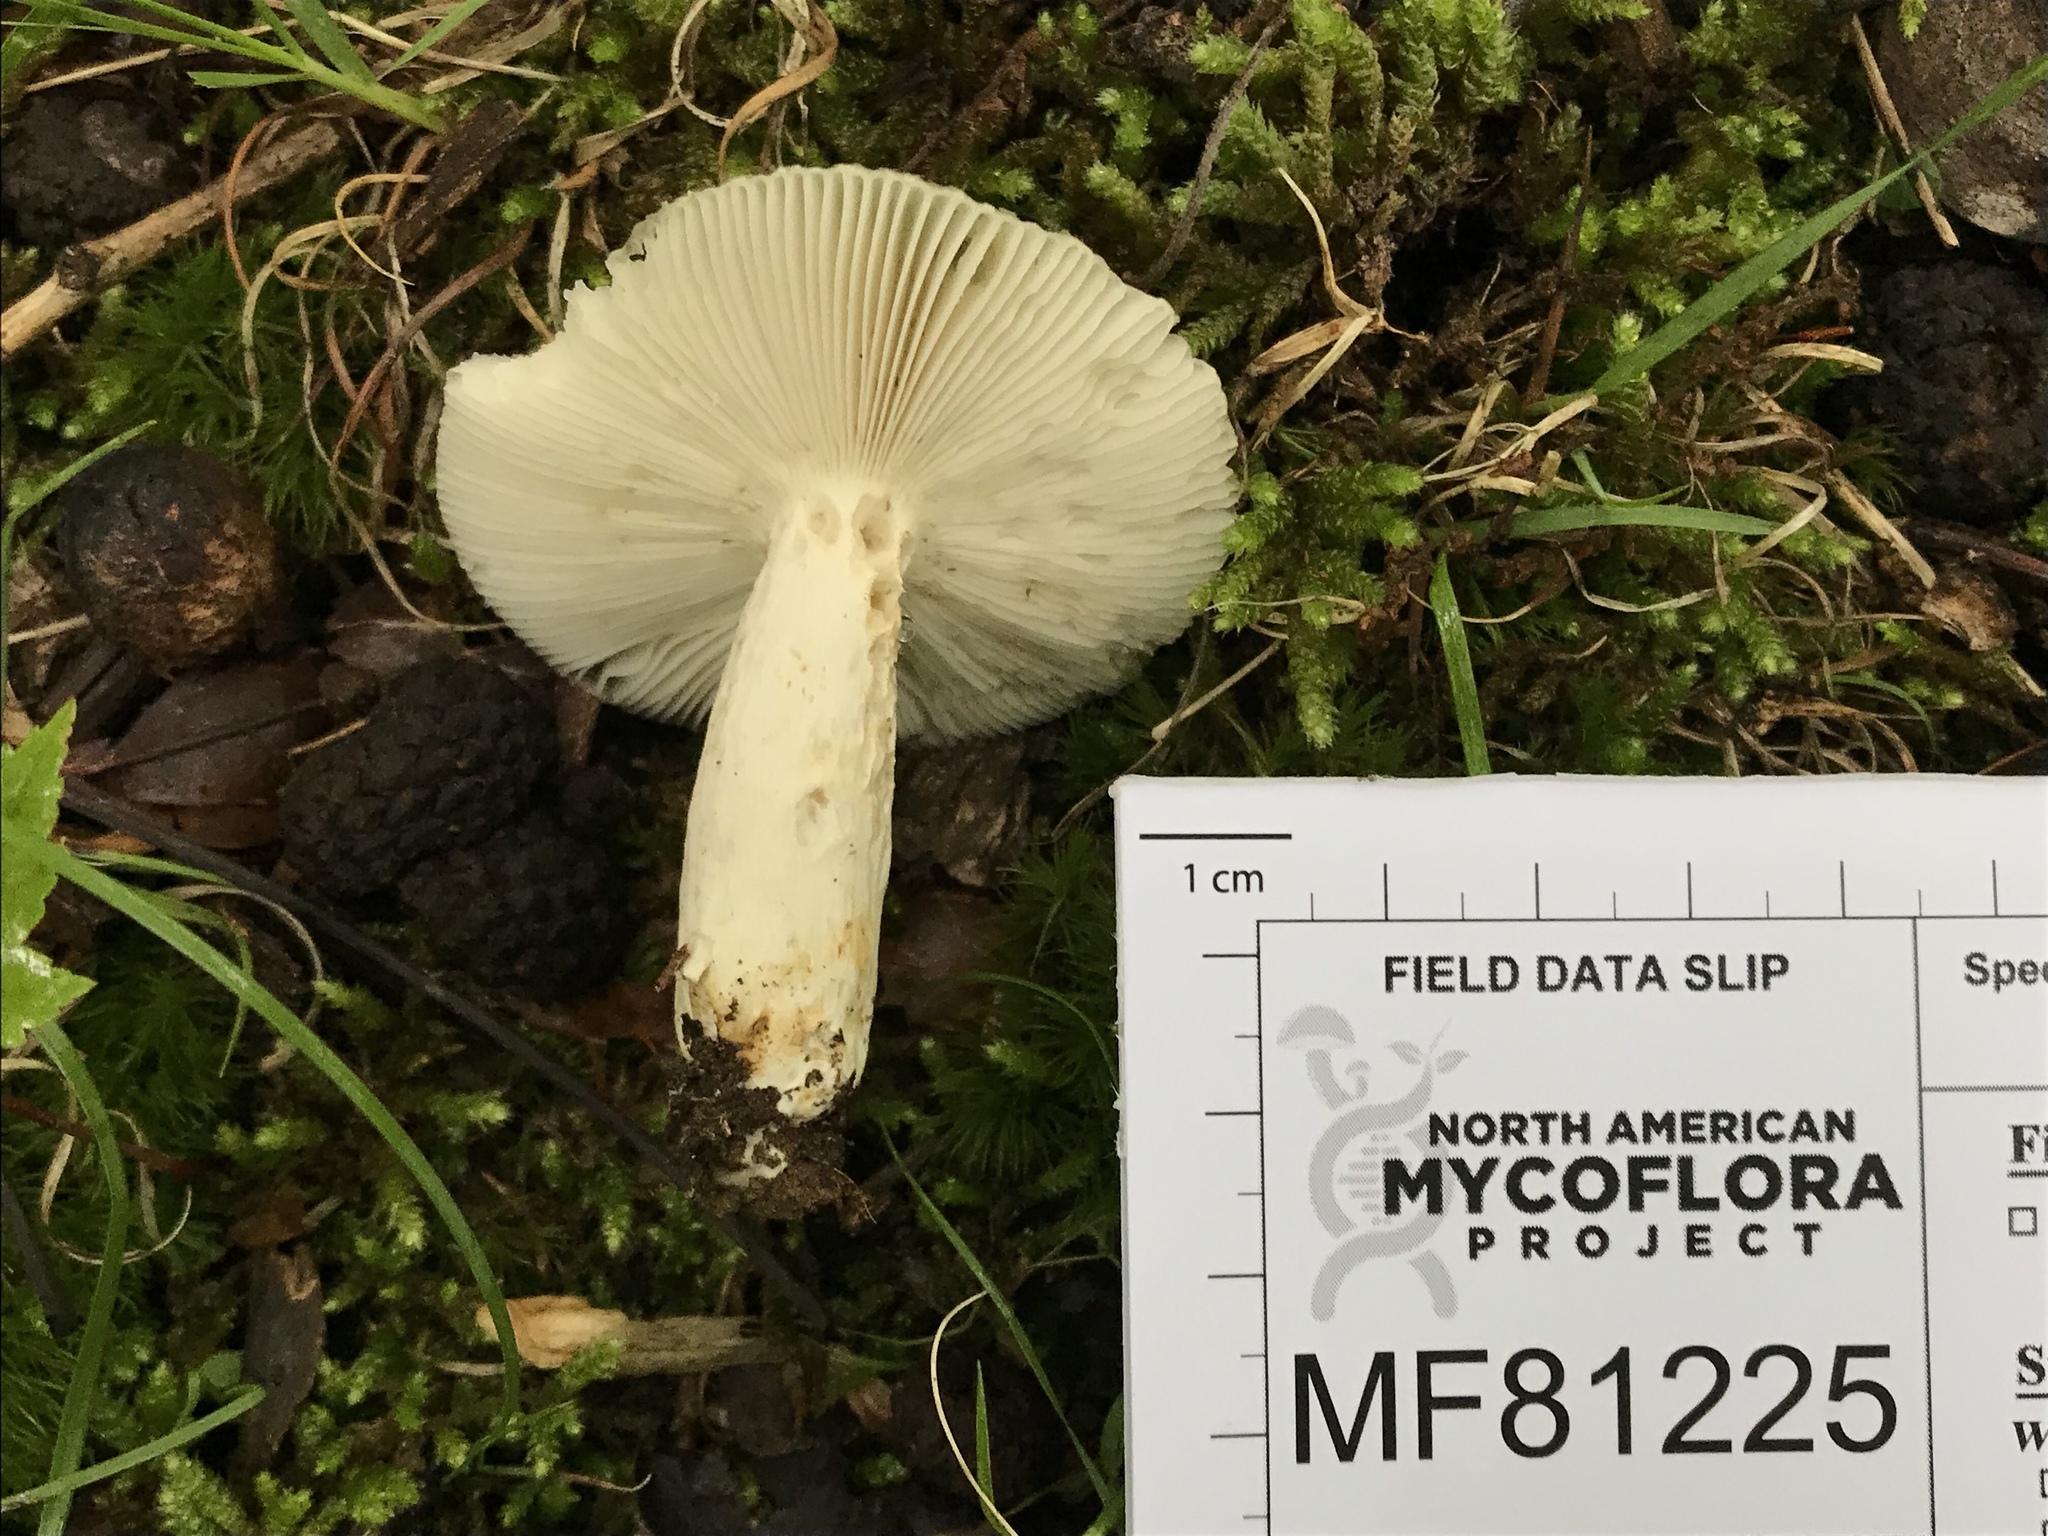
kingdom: Fungi
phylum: Basidiomycota
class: Agaricomycetes
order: Russulales
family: Russulaceae
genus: Russula
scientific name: Russula parvovirescens
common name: Blue-green cracking russula
